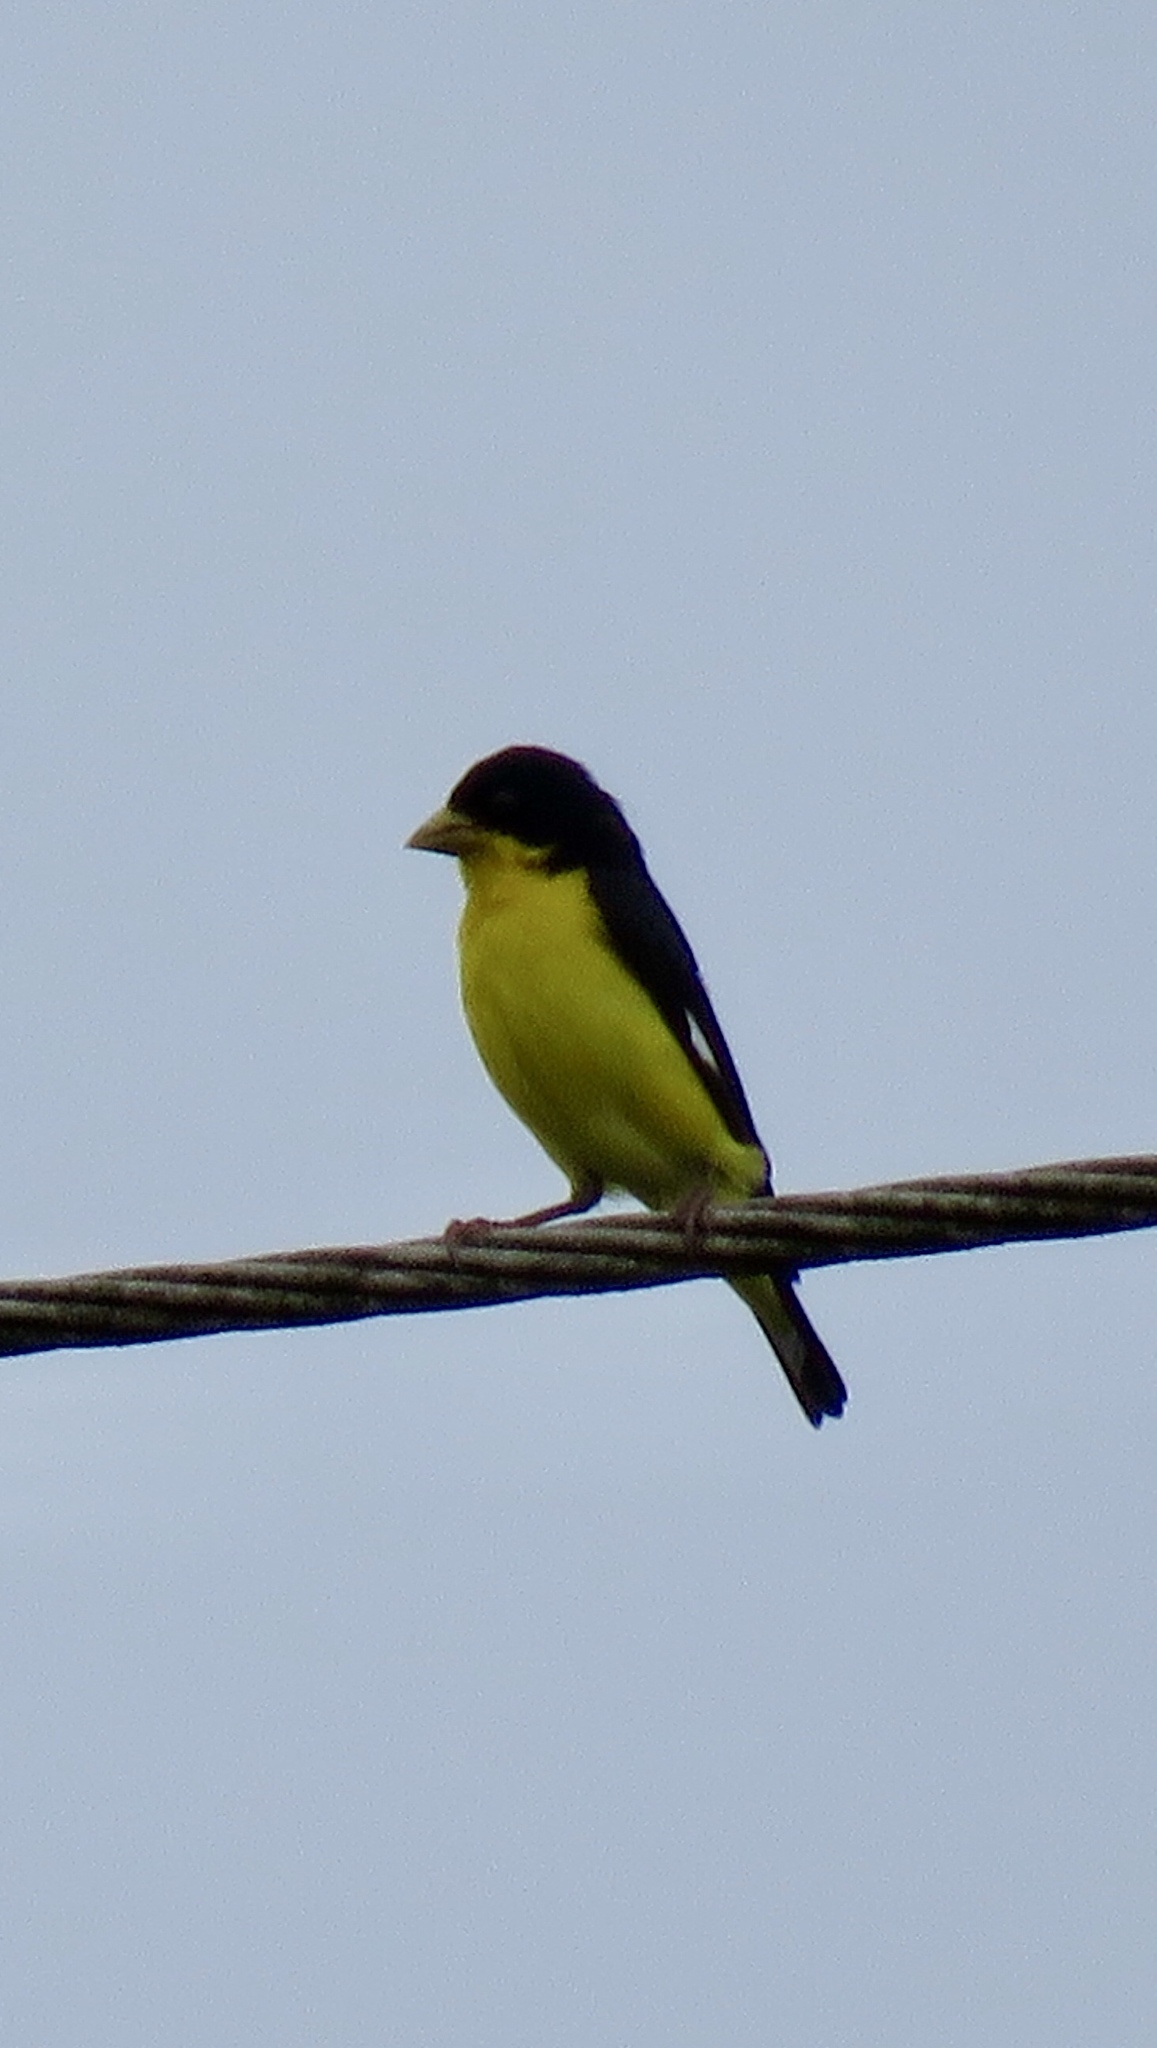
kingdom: Animalia
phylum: Chordata
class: Aves
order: Passeriformes
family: Fringillidae
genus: Spinus
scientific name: Spinus psaltria
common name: Lesser goldfinch
